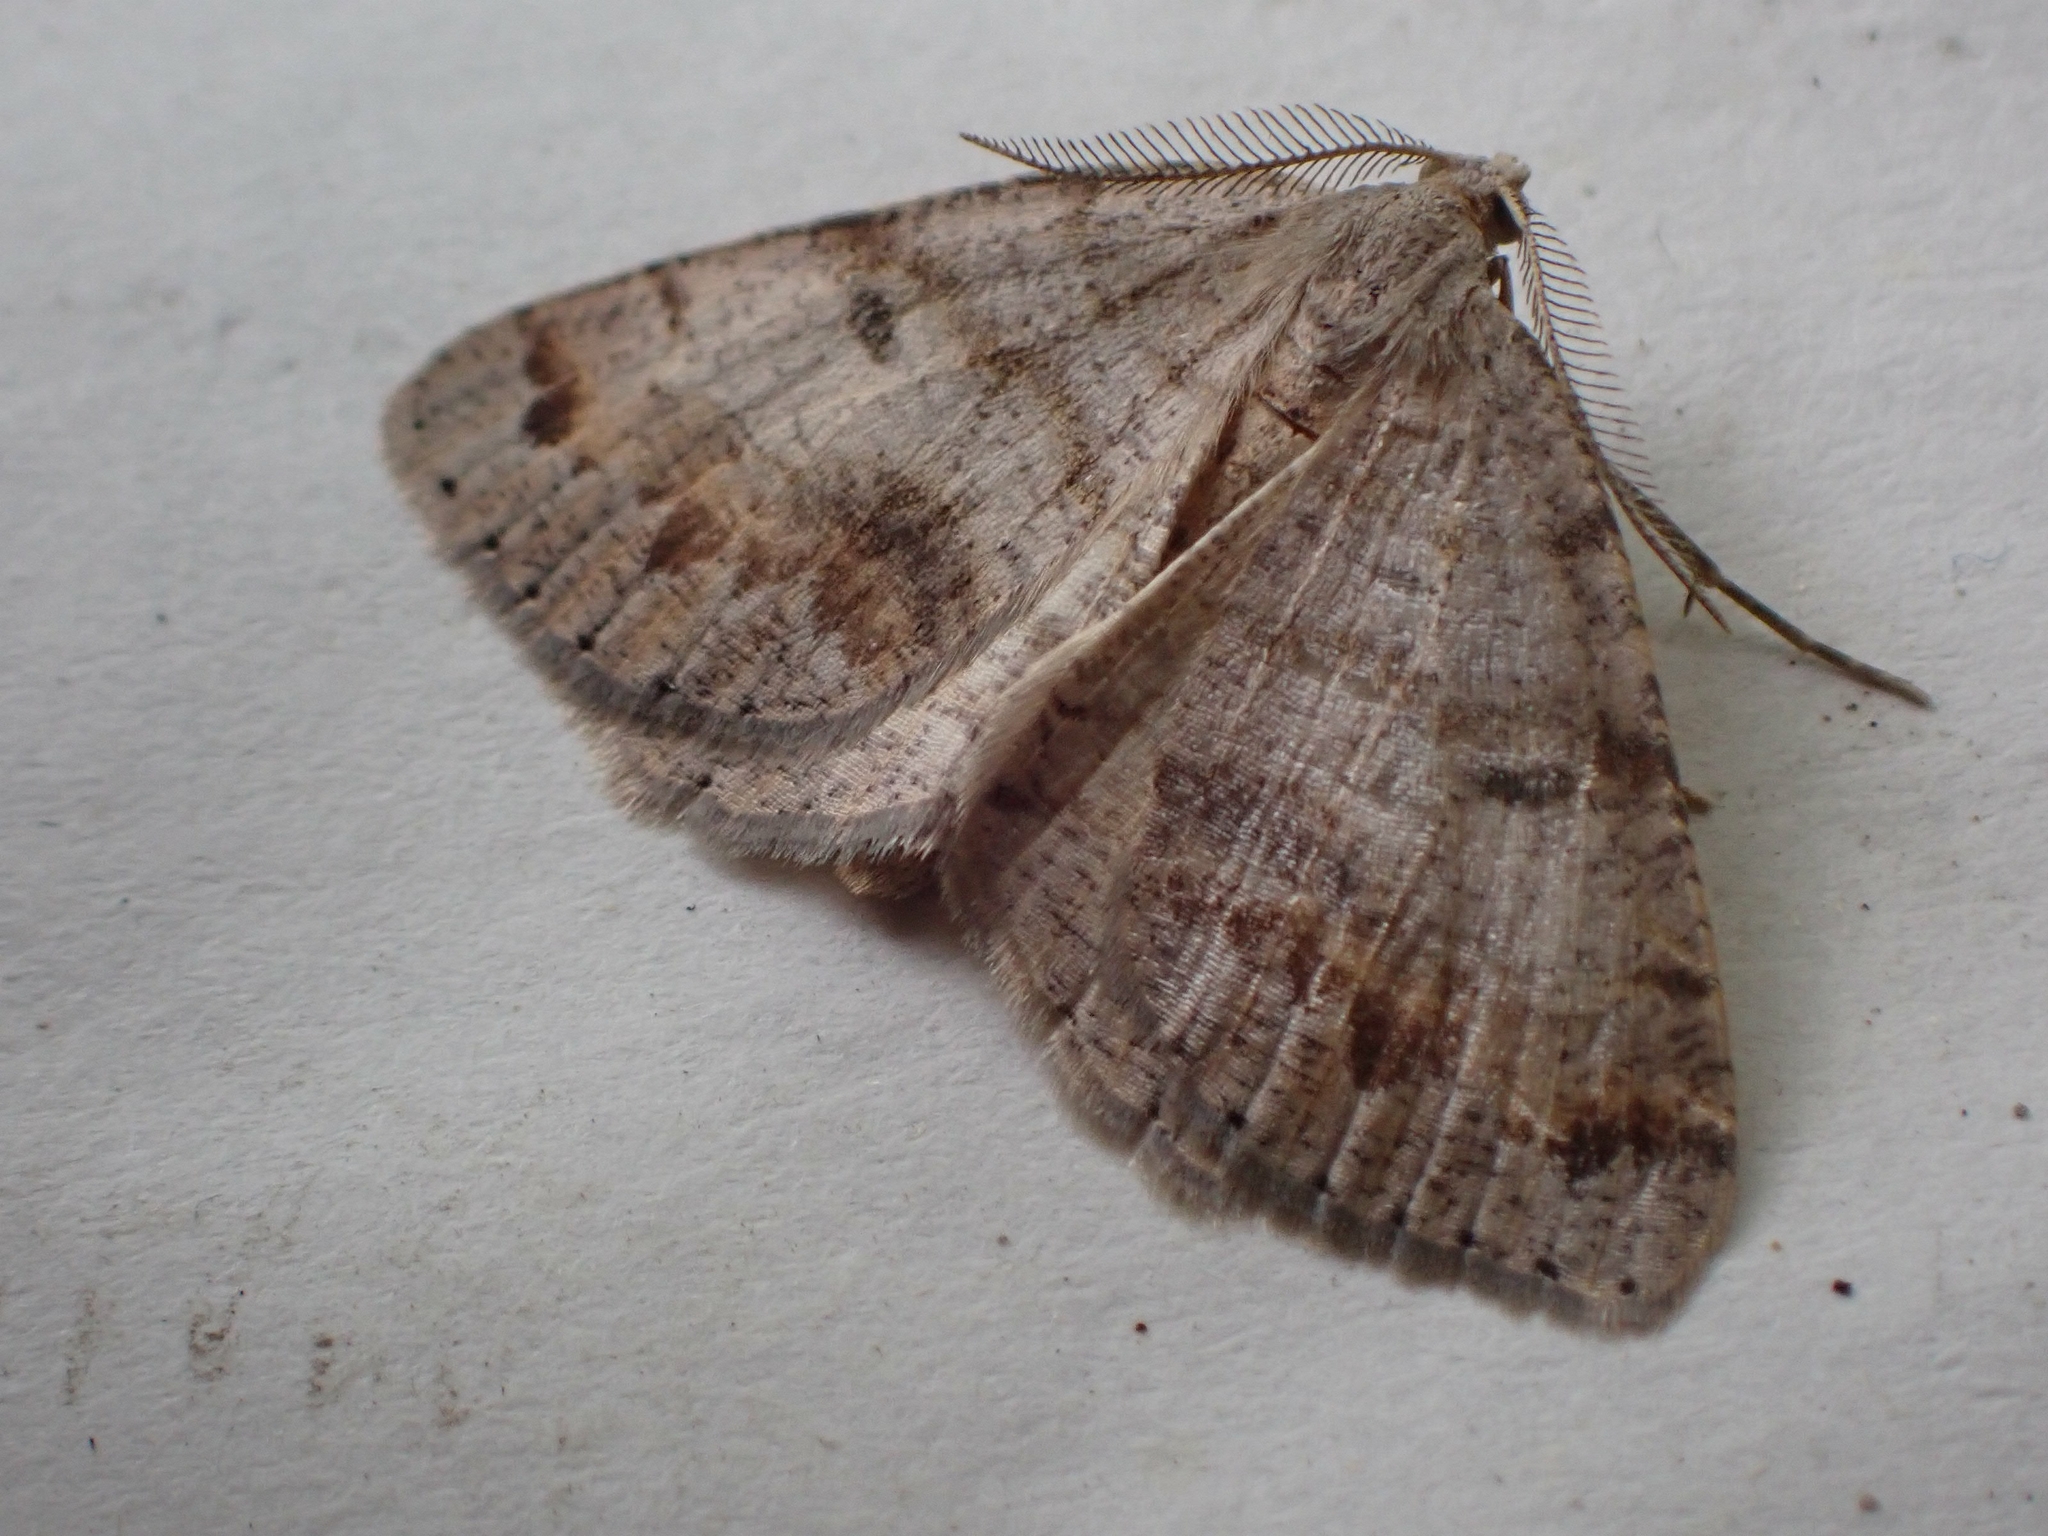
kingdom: Animalia
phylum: Arthropoda
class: Insecta
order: Lepidoptera
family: Geometridae
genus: Macaria
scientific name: Macaria loricaria
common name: False bruce spanworm
